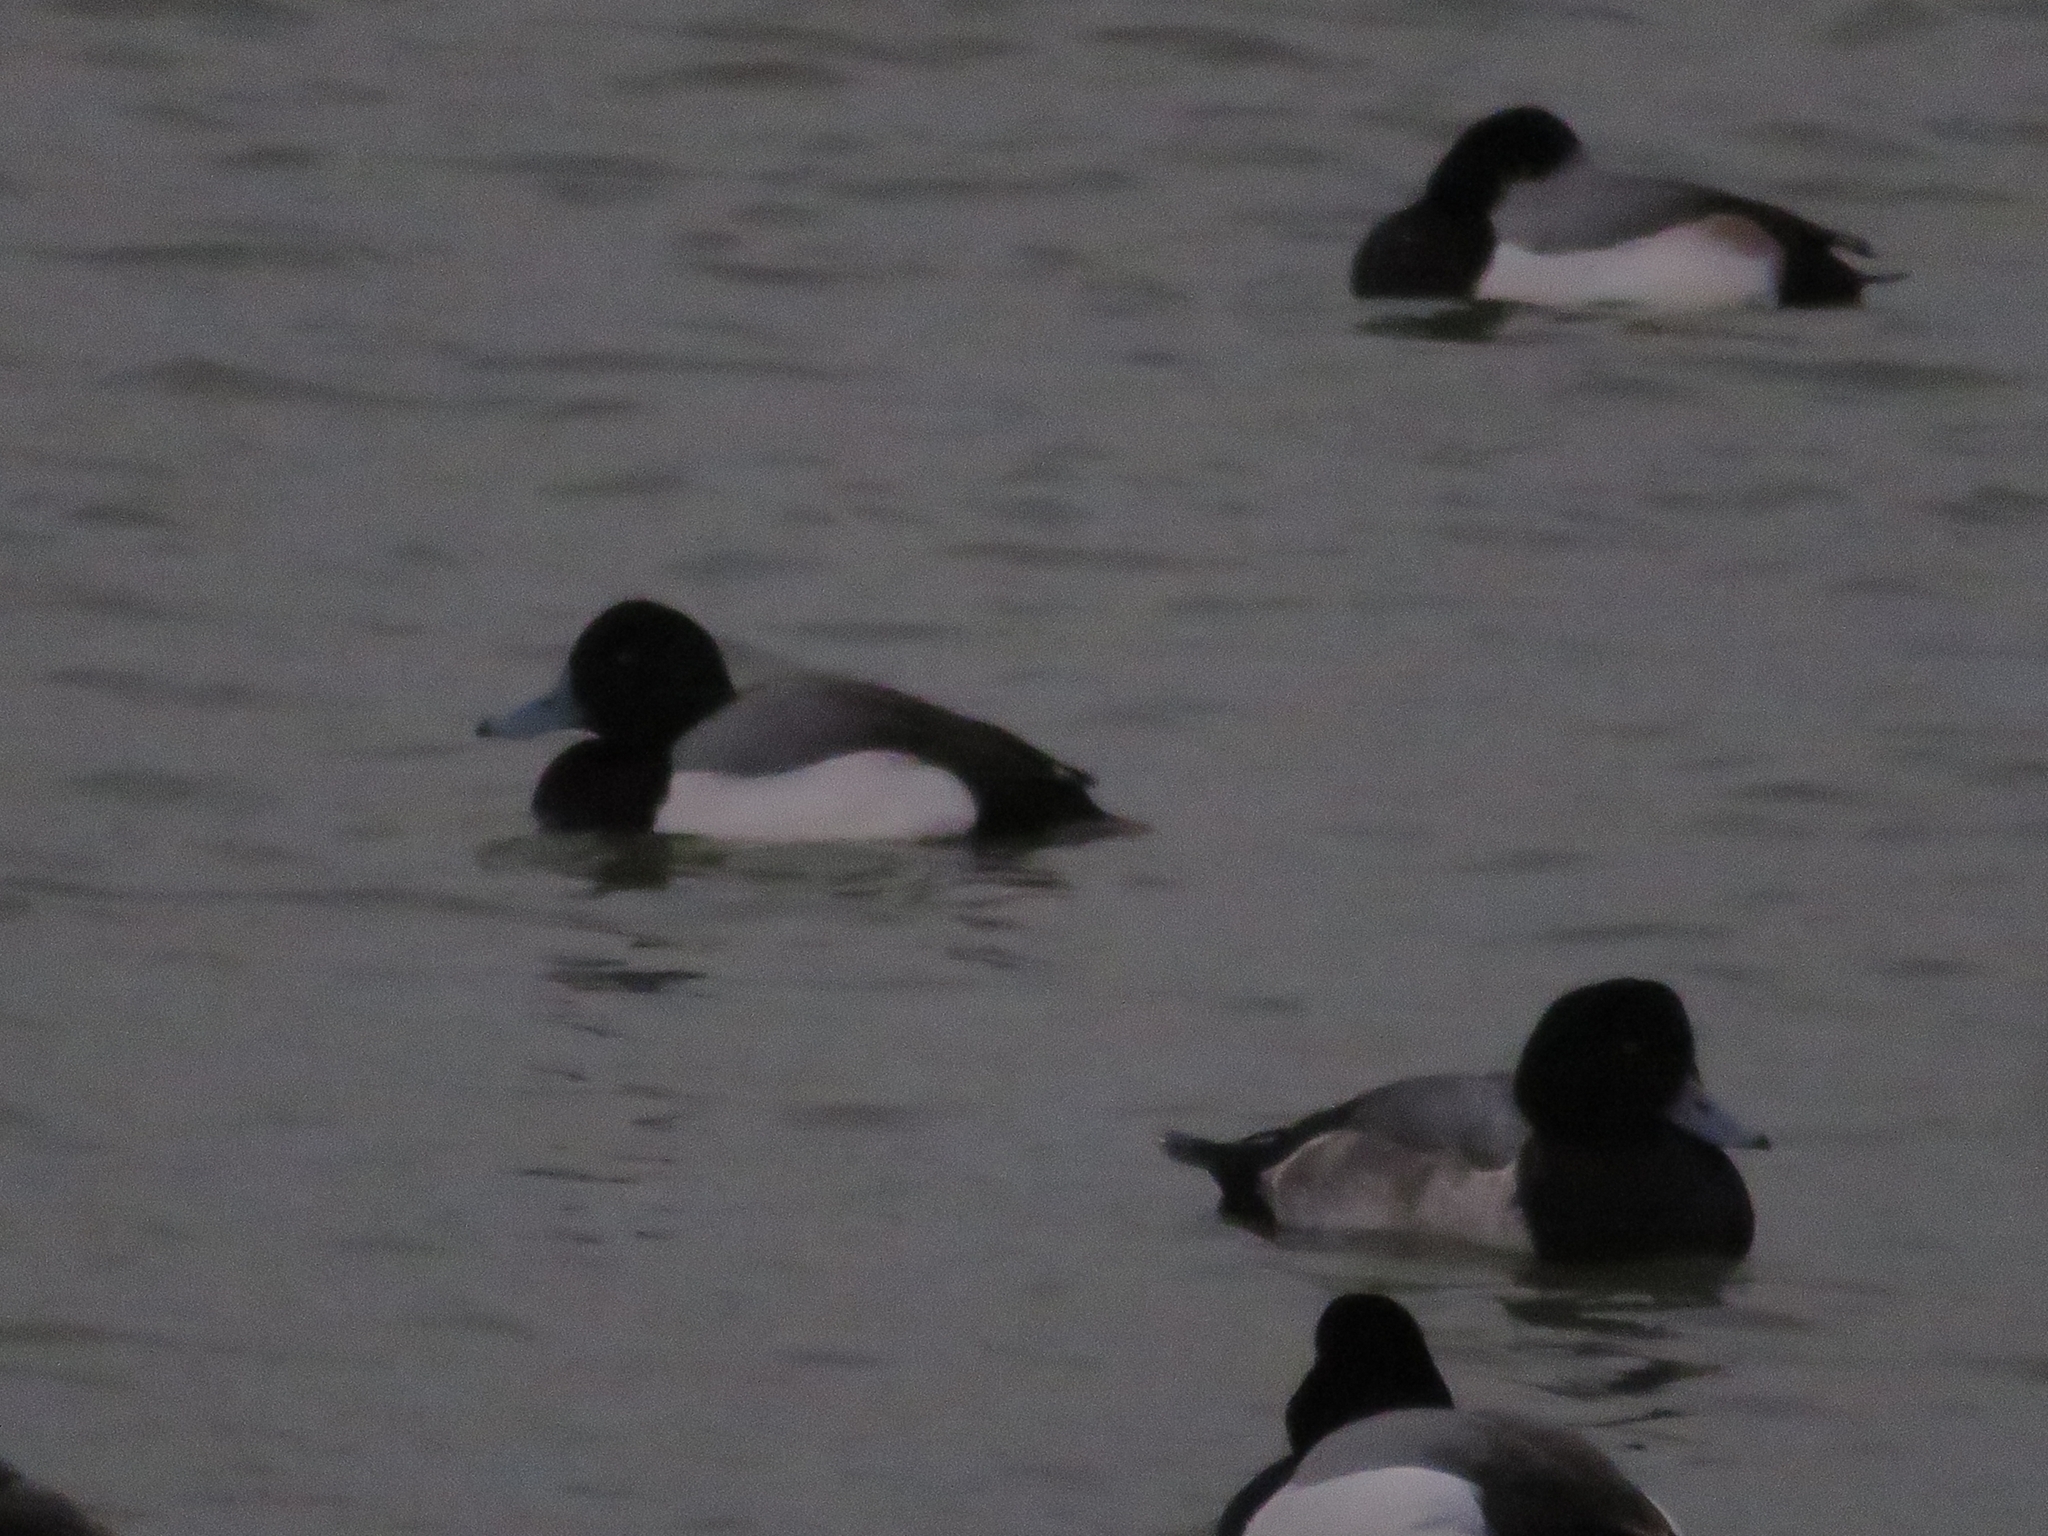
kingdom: Animalia
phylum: Chordata
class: Aves
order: Anseriformes
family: Anatidae
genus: Aythya
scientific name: Aythya marila
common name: Greater scaup
